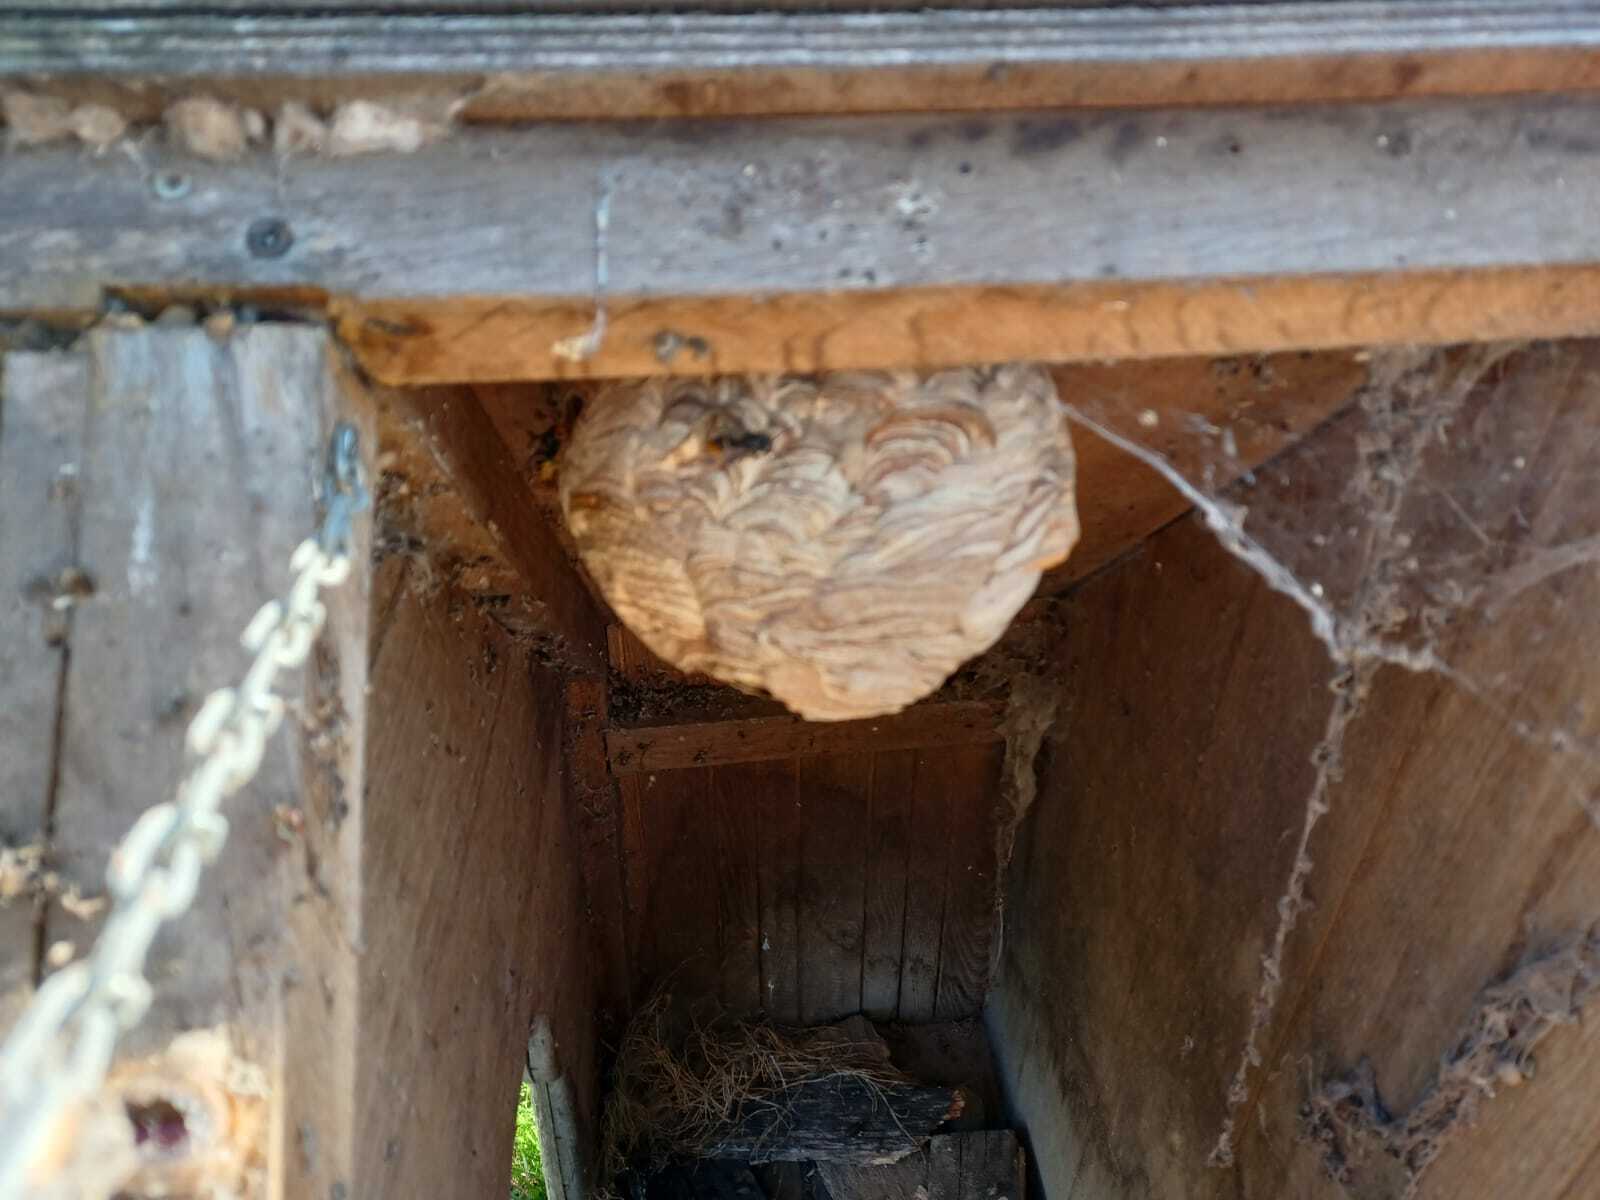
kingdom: Animalia
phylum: Arthropoda
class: Insecta
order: Hymenoptera
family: Vespidae
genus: Vespa
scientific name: Vespa velutina
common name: Asian hornet
